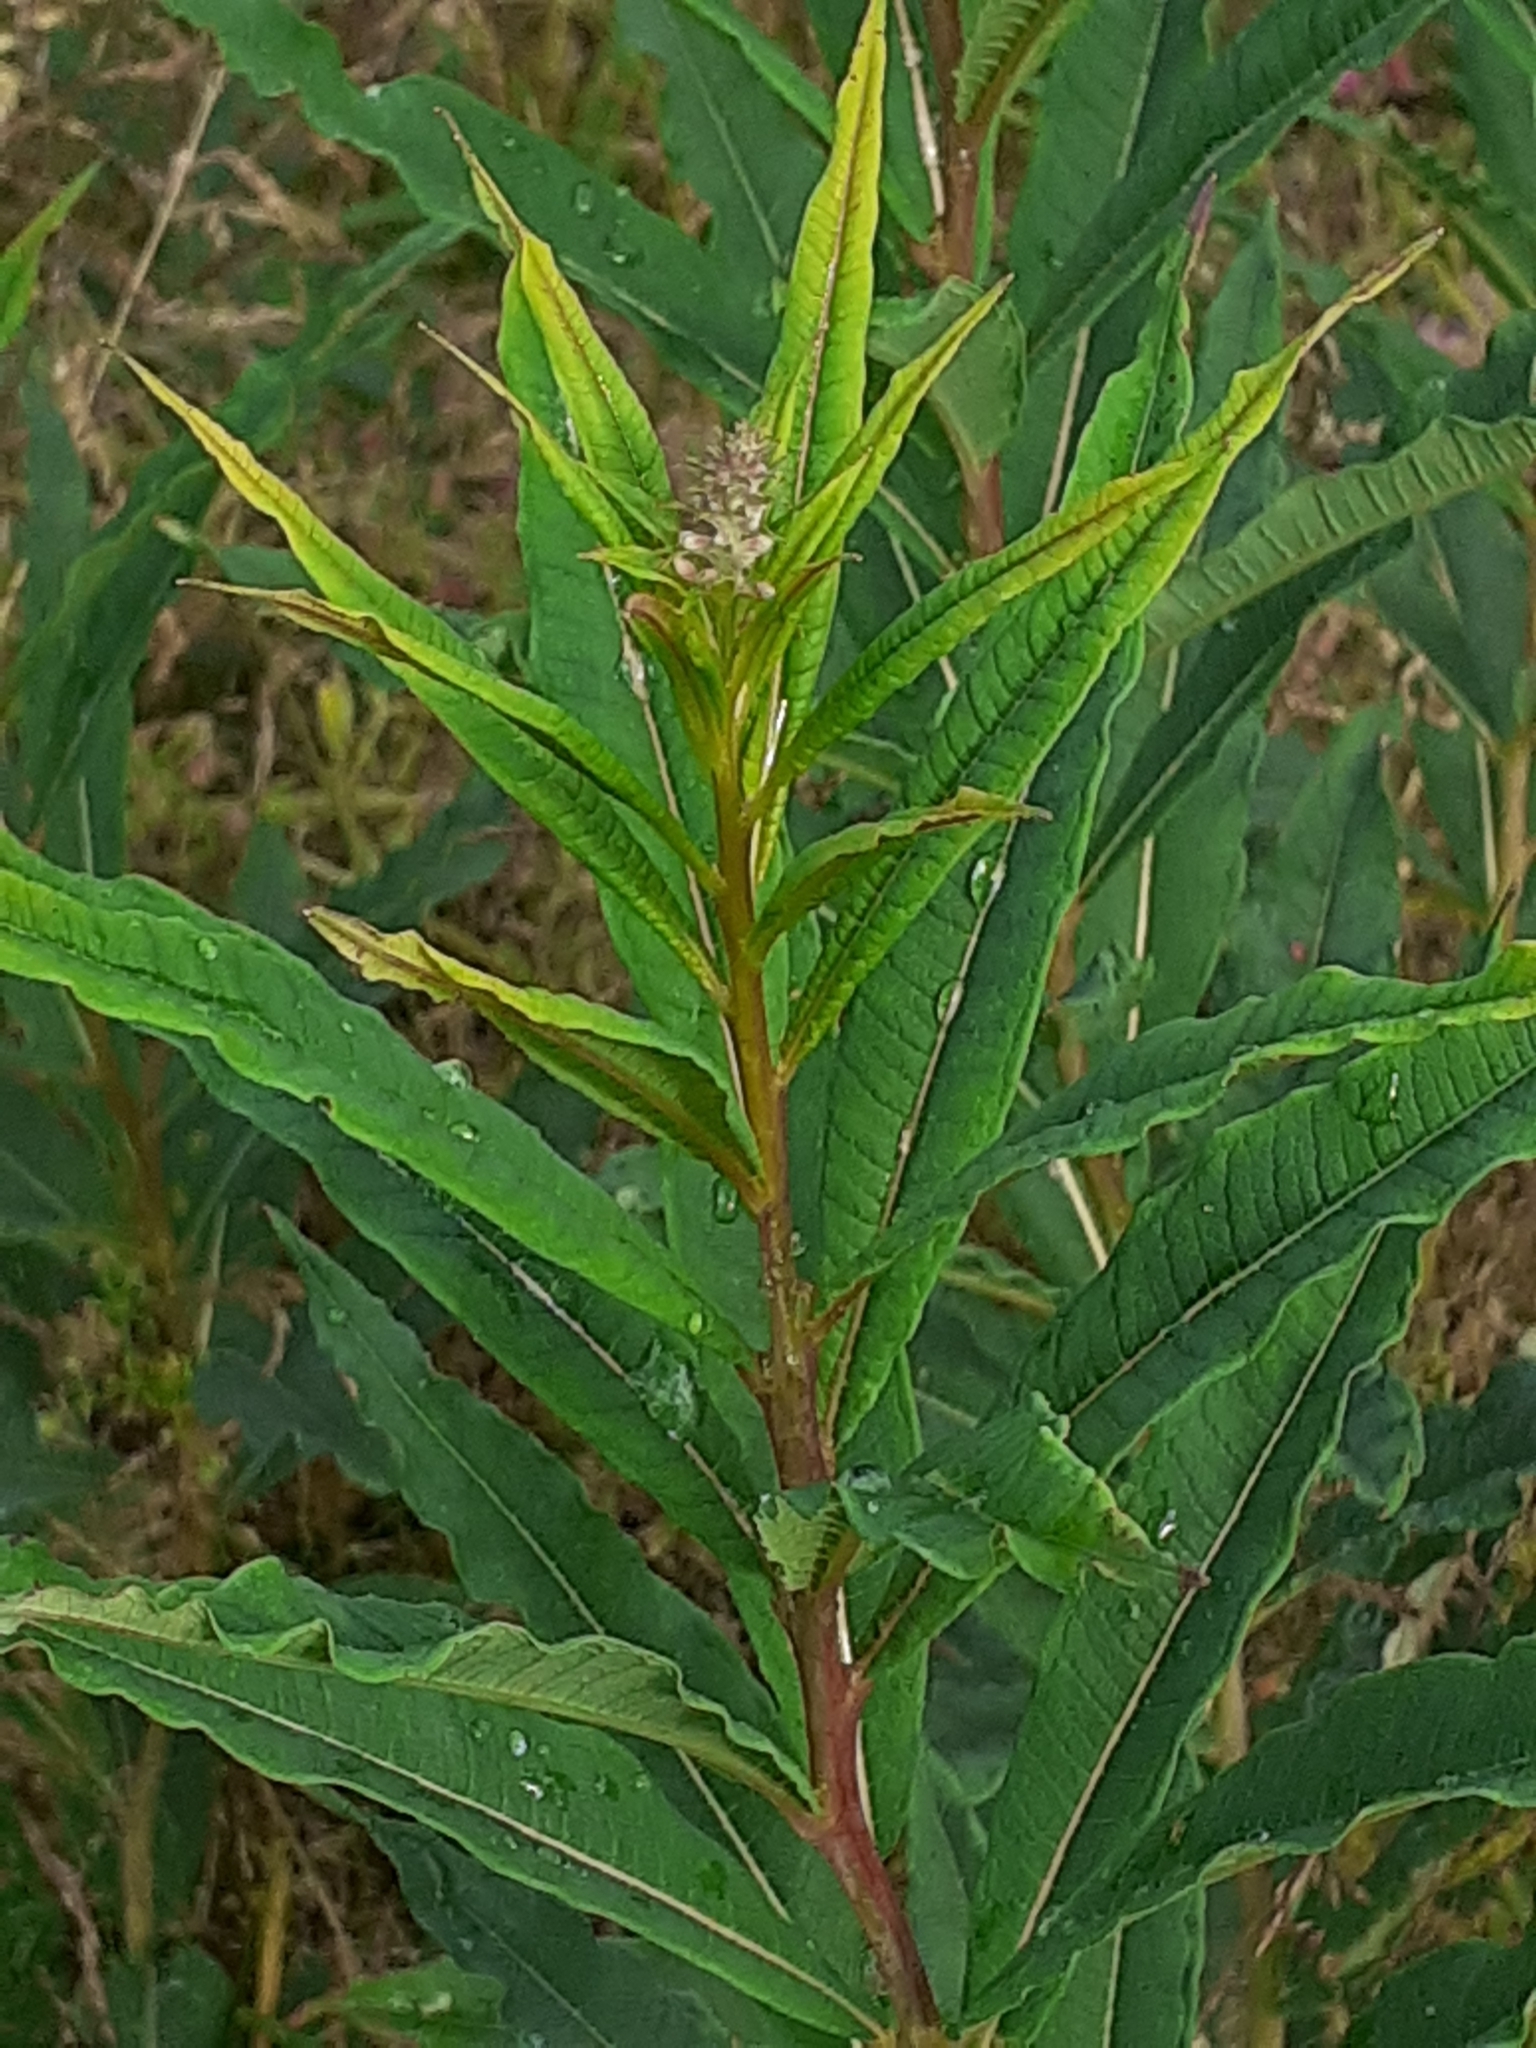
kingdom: Plantae
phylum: Tracheophyta
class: Magnoliopsida
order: Myrtales
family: Onagraceae
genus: Chamaenerion
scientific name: Chamaenerion angustifolium
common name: Fireweed
